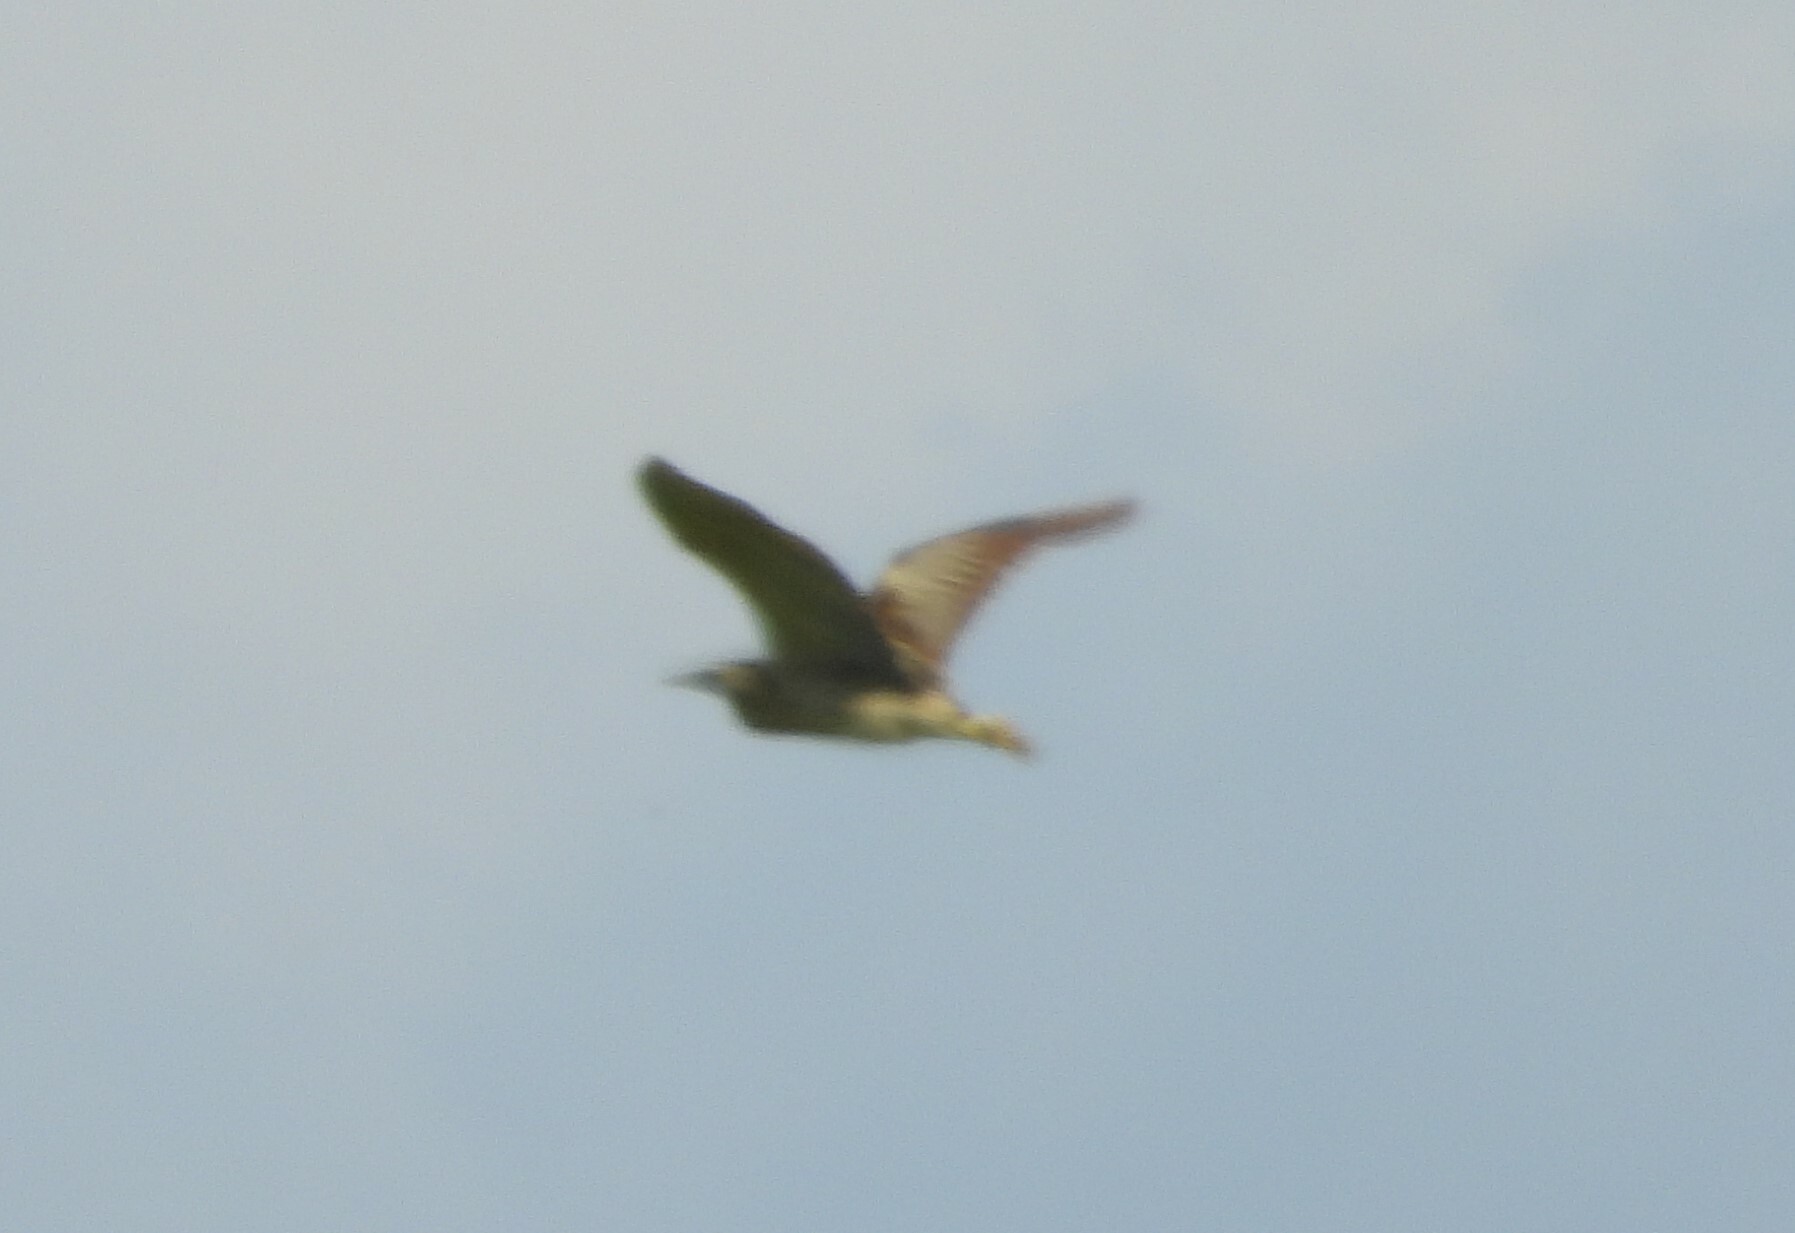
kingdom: Animalia
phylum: Chordata
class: Aves
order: Pelecaniformes
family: Ardeidae
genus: Botaurus
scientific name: Botaurus stellaris
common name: Eurasian bittern
